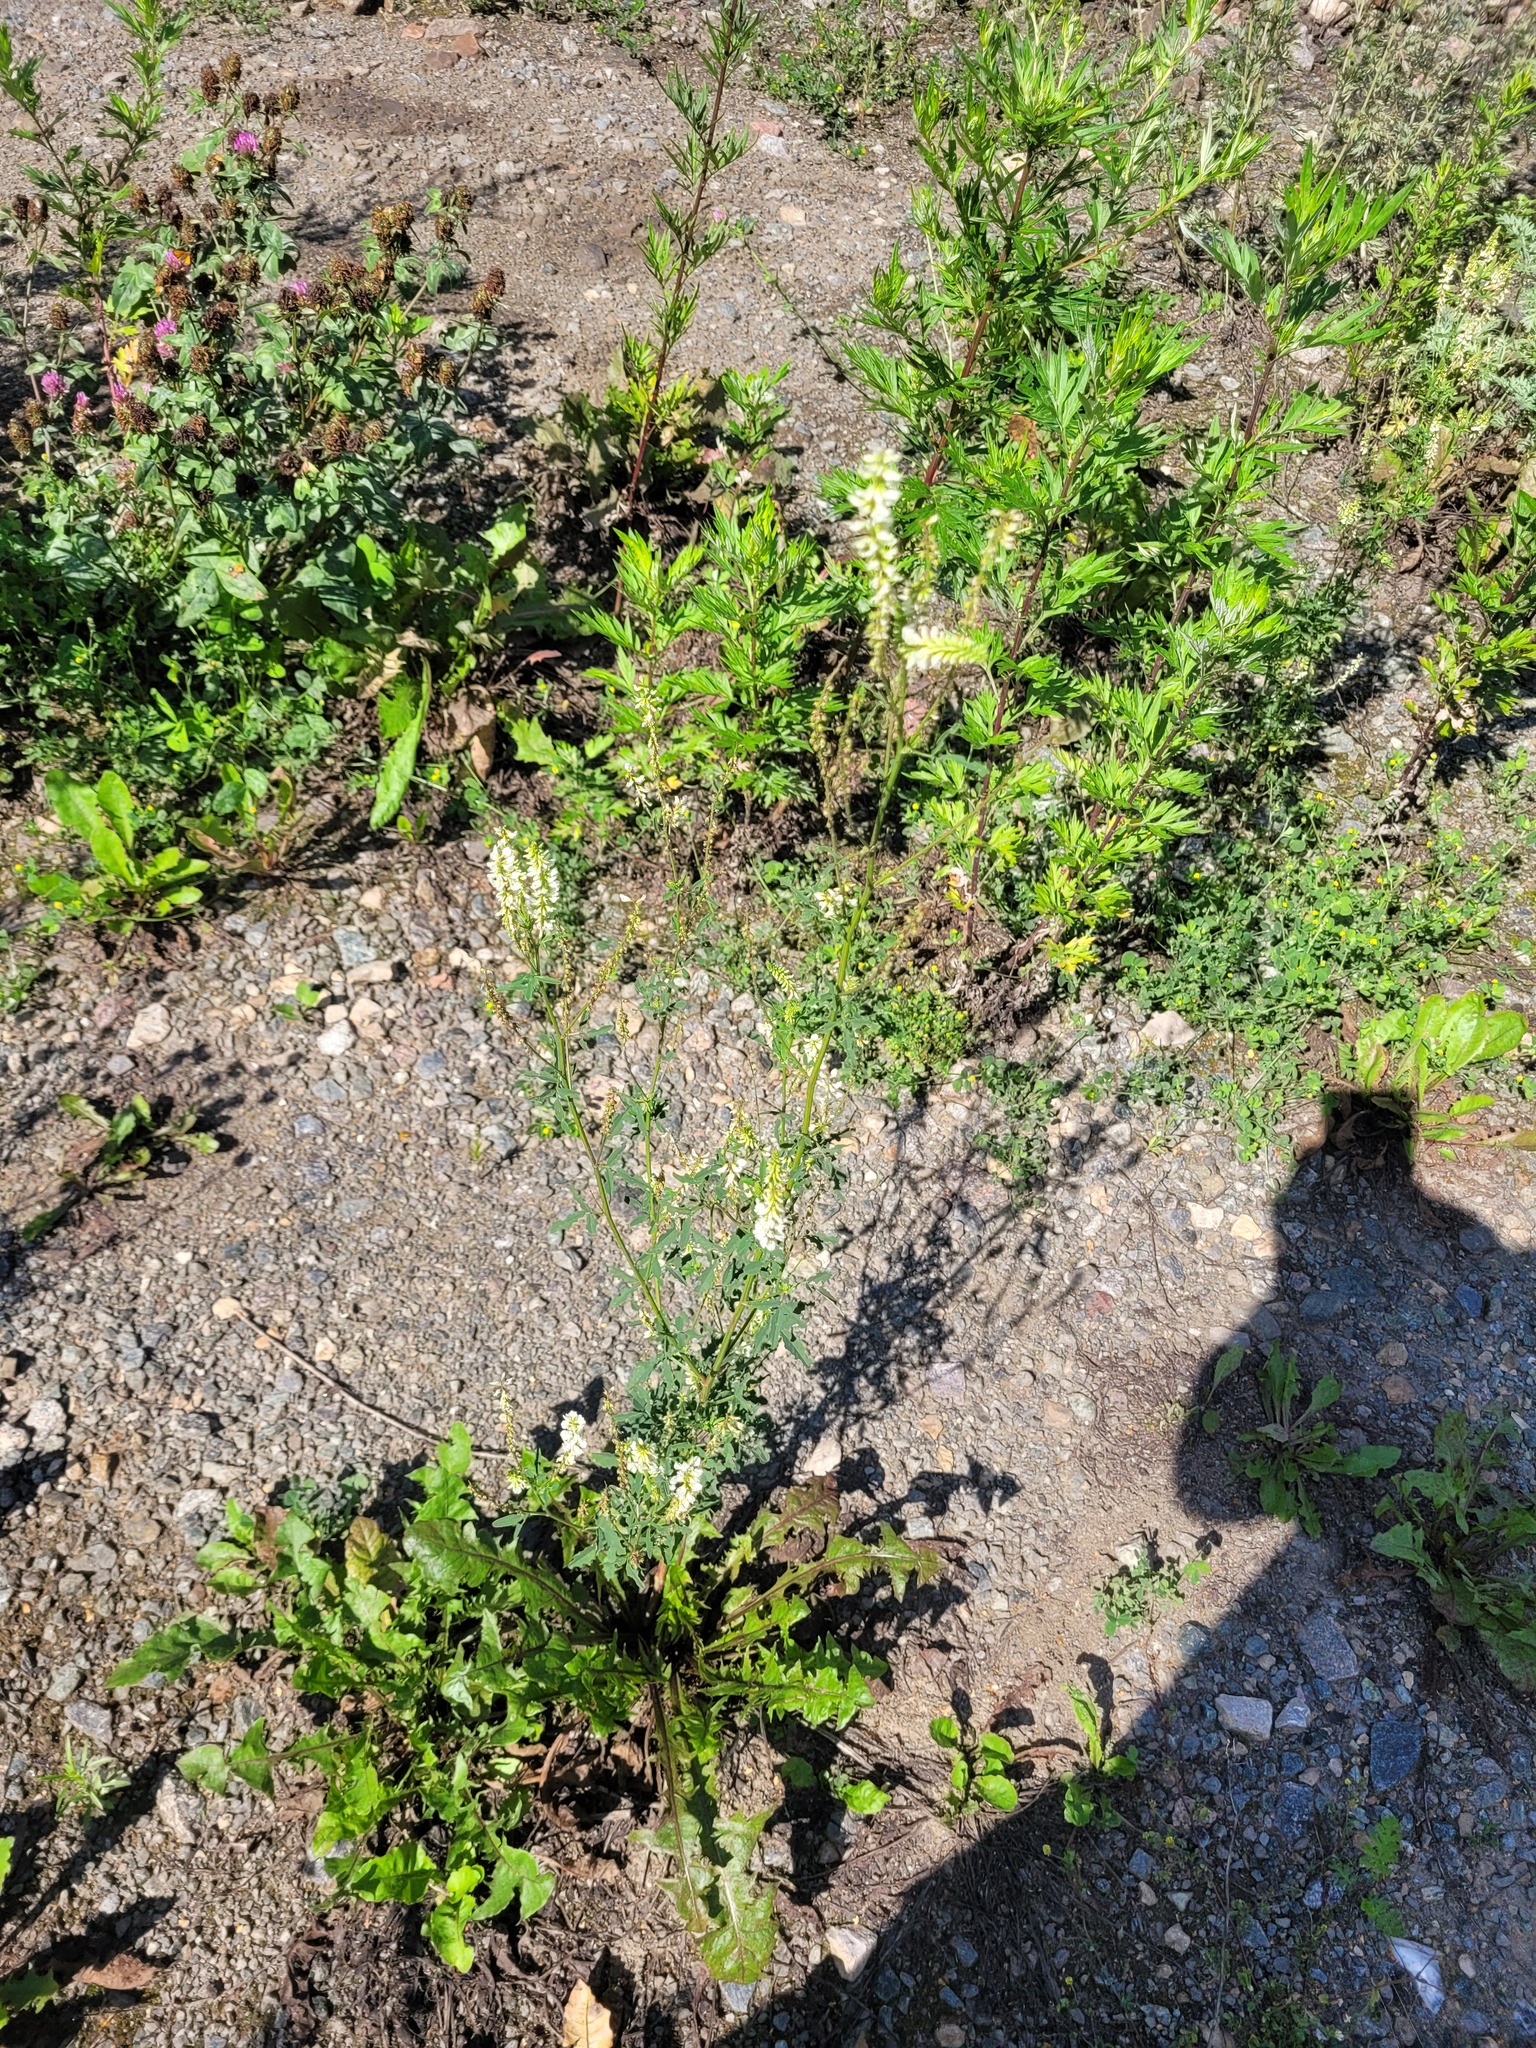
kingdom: Plantae
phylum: Tracheophyta
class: Magnoliopsida
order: Fabales
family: Fabaceae
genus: Melilotus
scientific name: Melilotus albus
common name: White melilot
